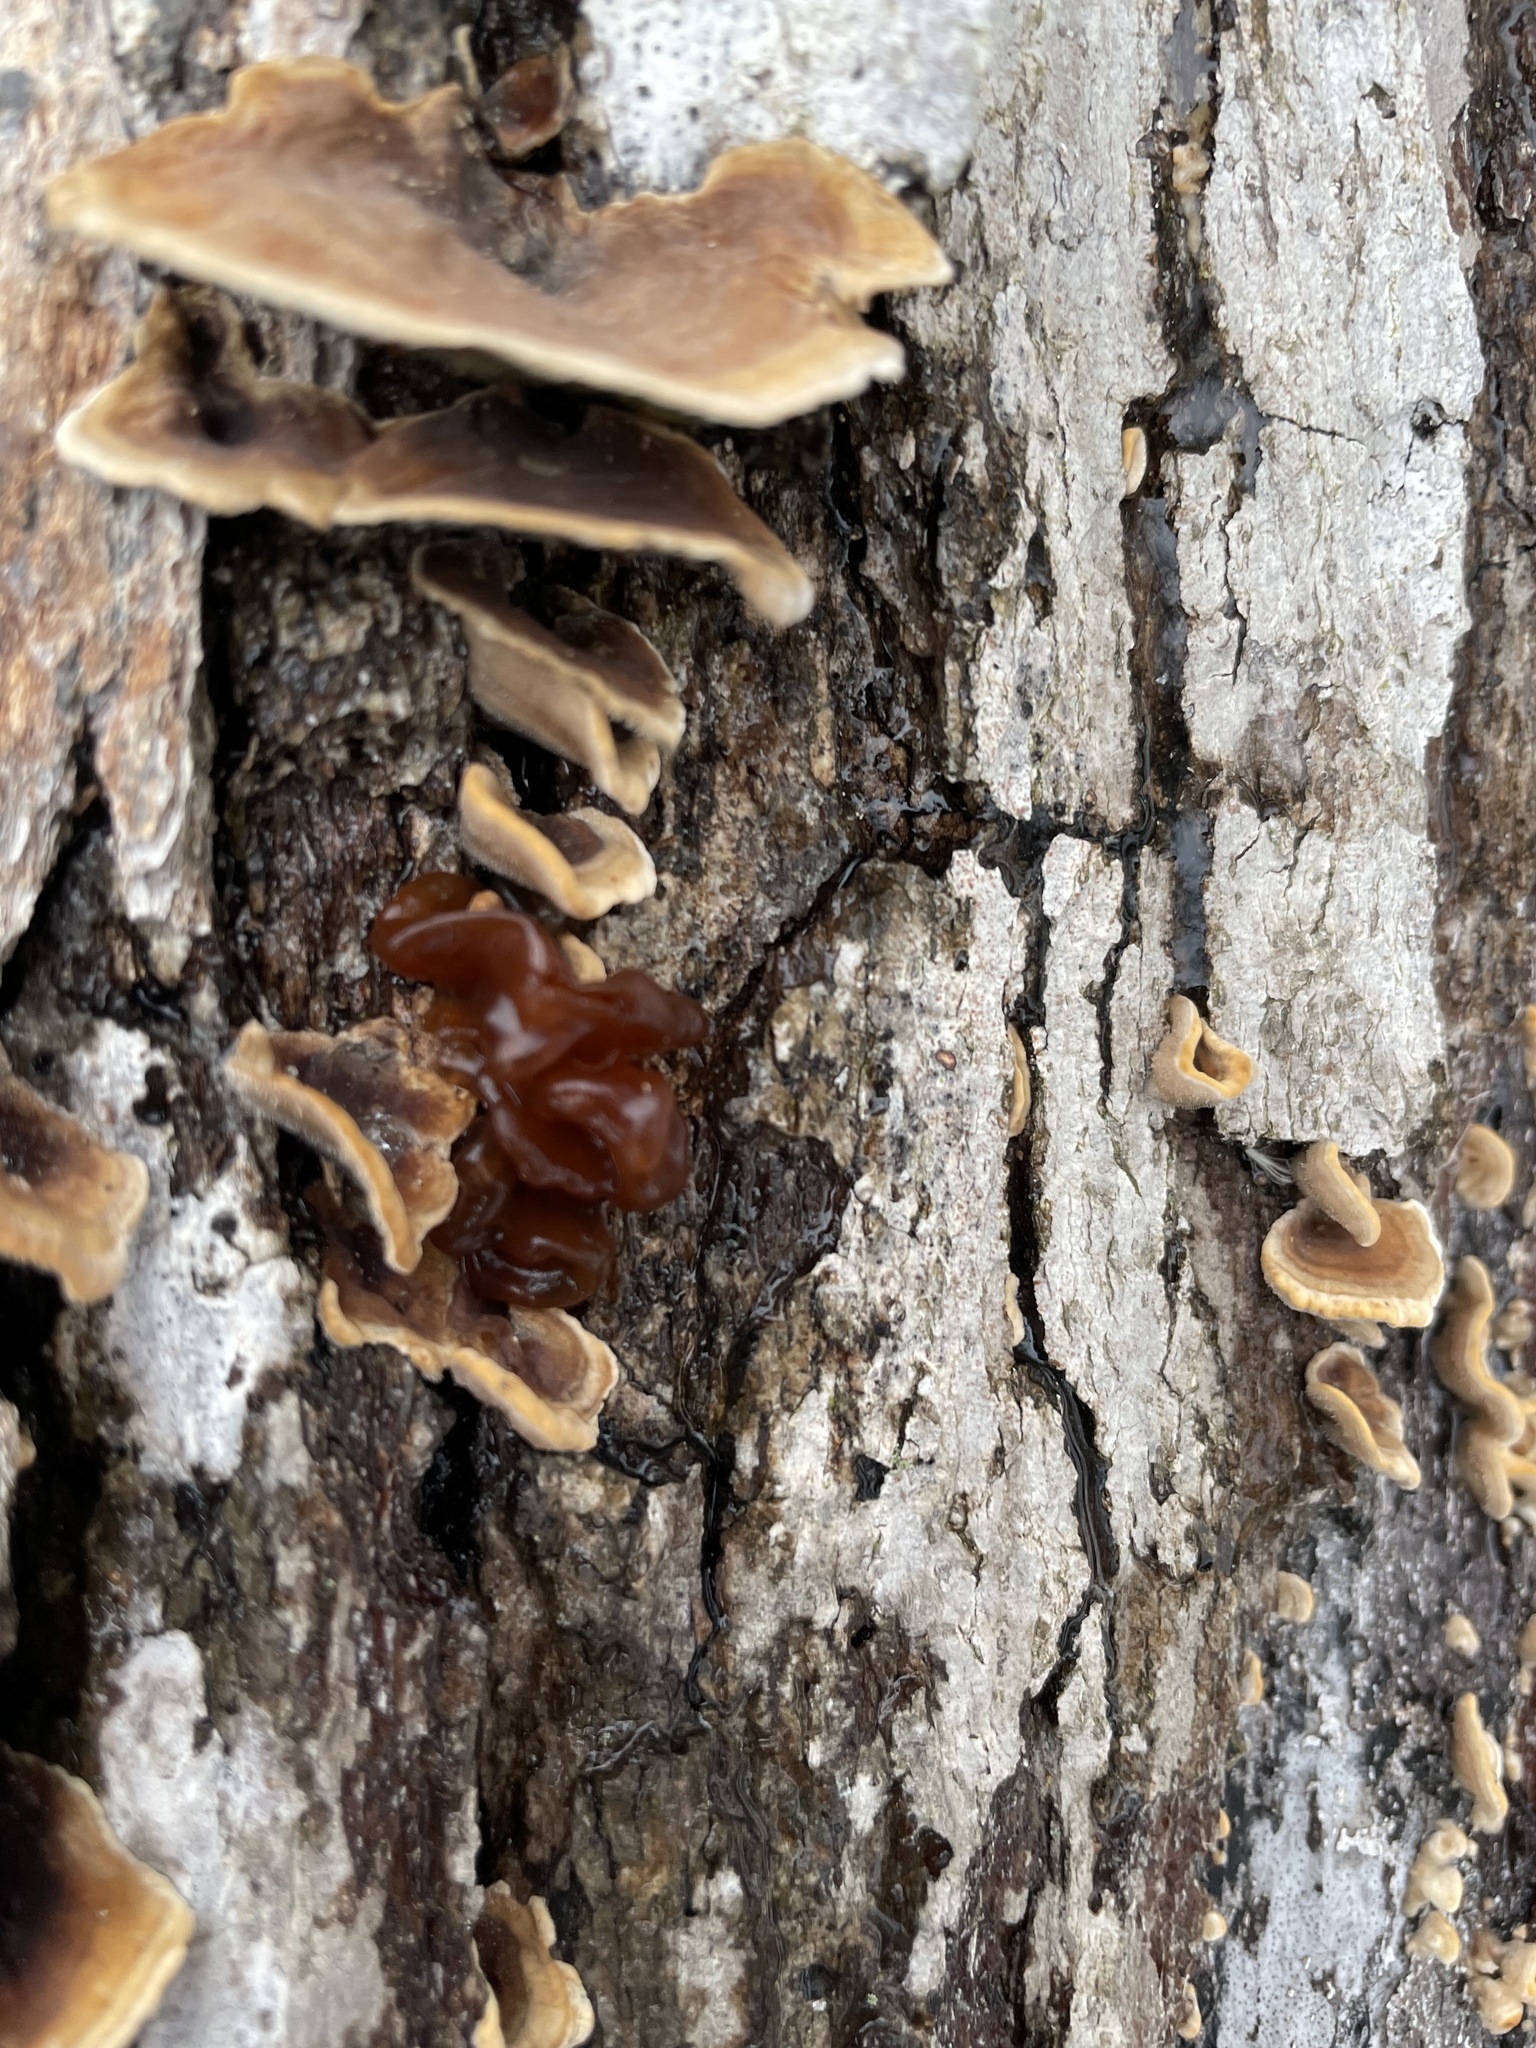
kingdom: Fungi
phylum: Basidiomycota
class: Tremellomycetes
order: Tremellales
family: Tremellaceae
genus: Phaeotremella
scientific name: Phaeotremella frondosa
